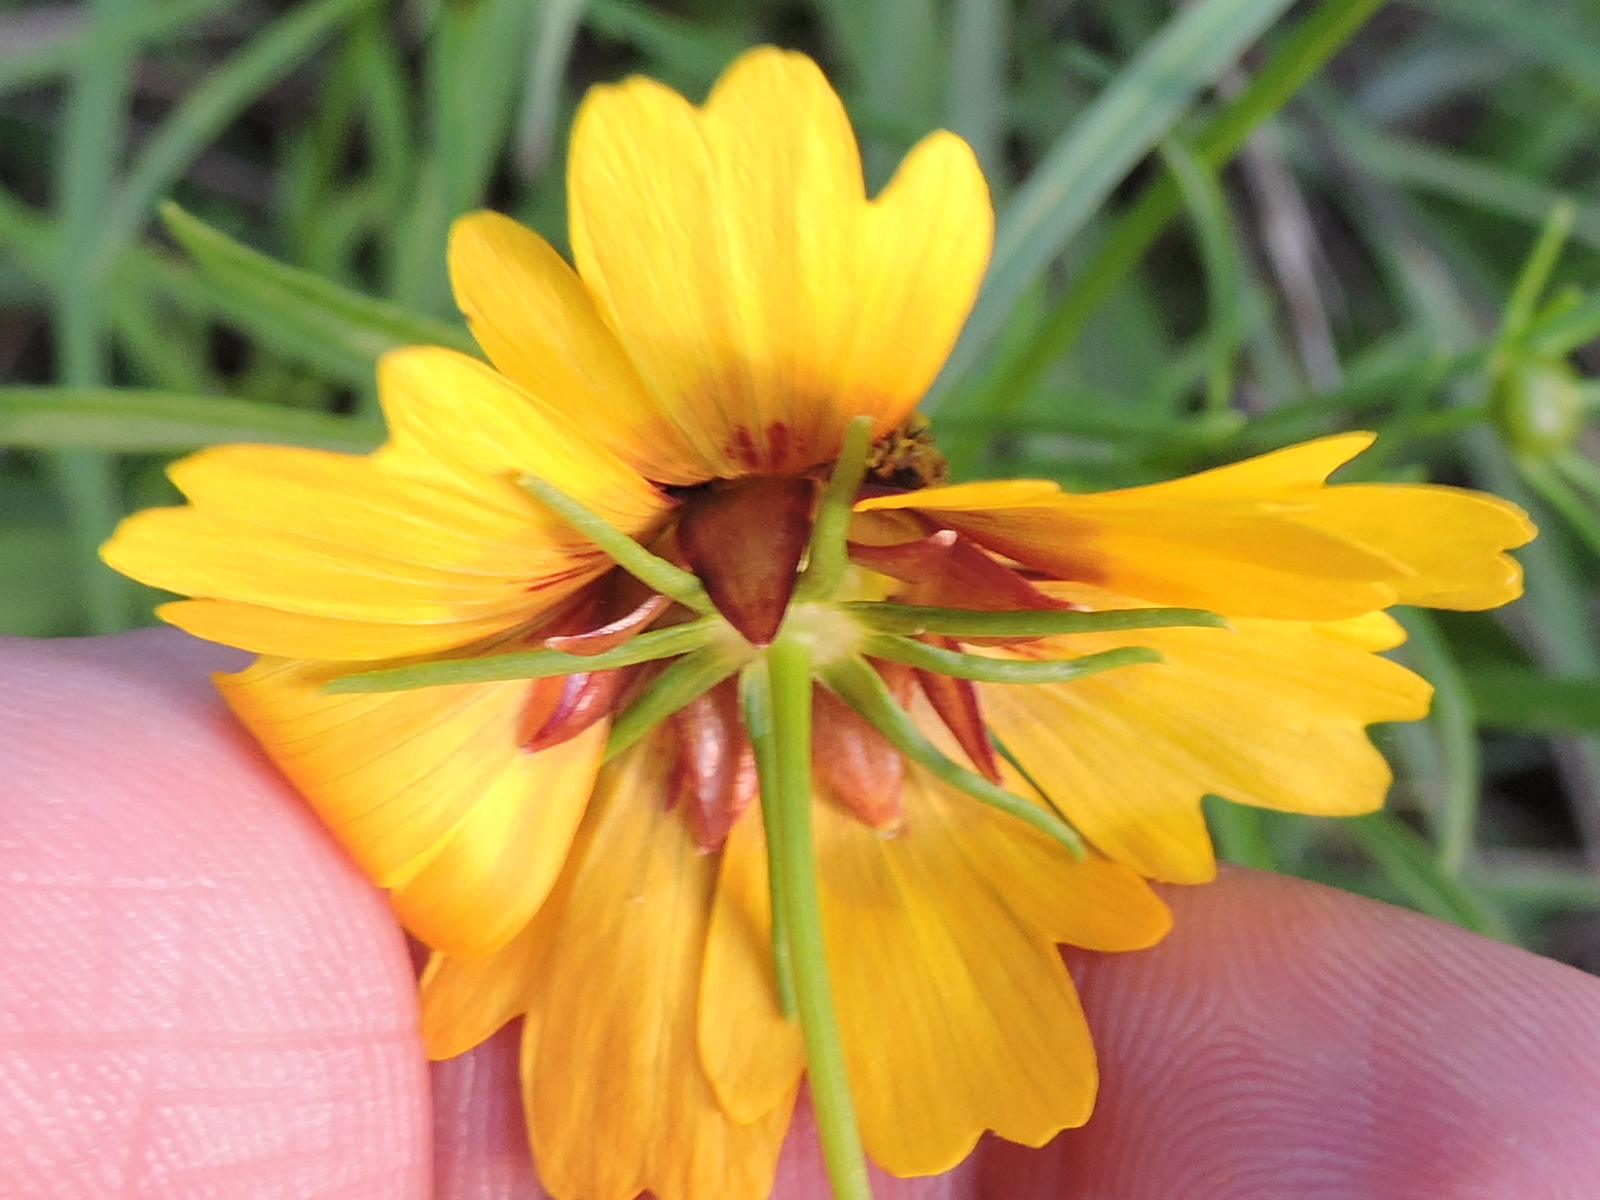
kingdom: Plantae
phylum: Tracheophyta
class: Magnoliopsida
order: Asterales
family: Asteraceae
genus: Coreopsis
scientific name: Coreopsis basalis
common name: Golden-mane coreopsis
